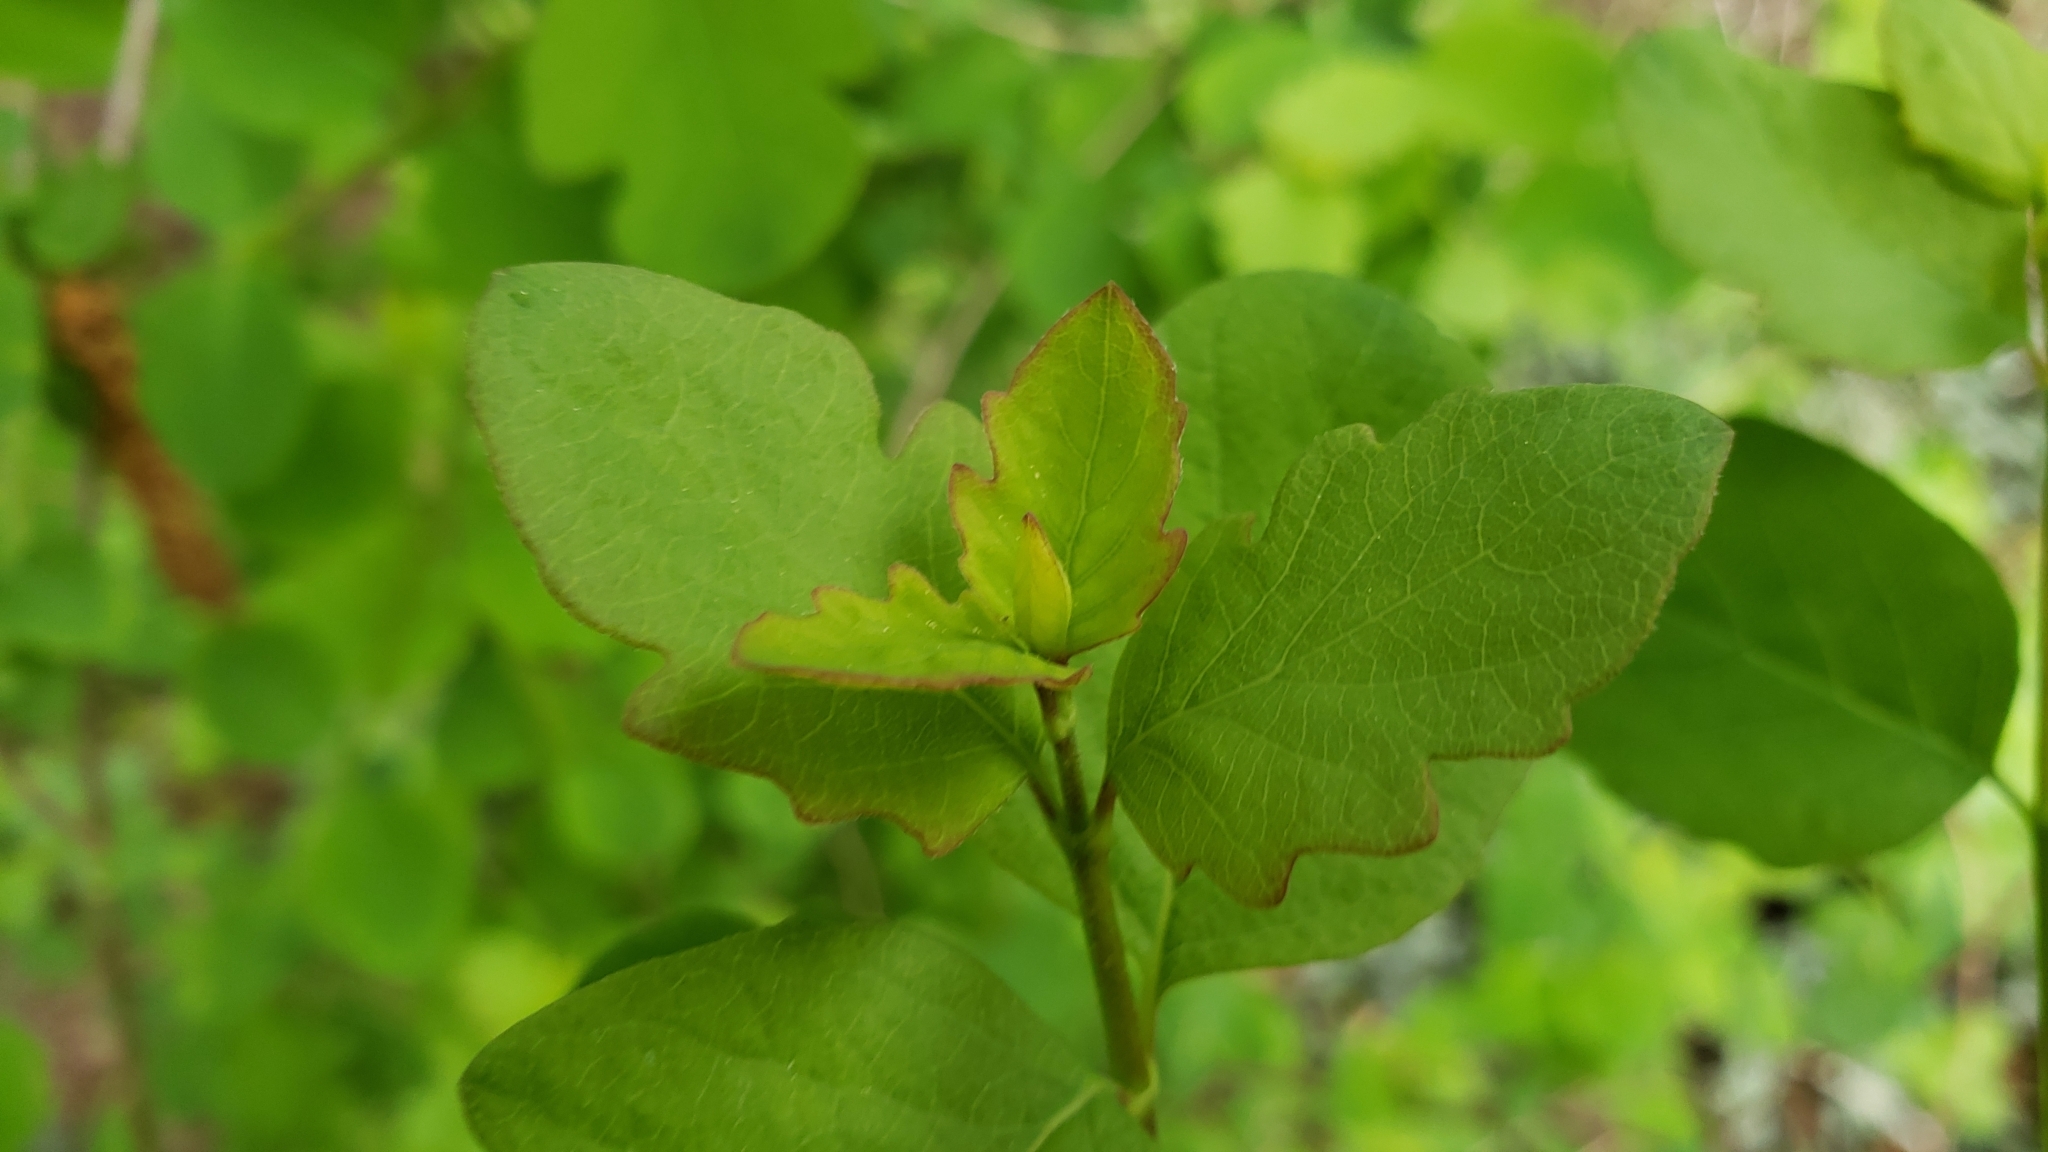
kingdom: Plantae
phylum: Tracheophyta
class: Magnoliopsida
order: Dipsacales
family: Caprifoliaceae
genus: Symphoricarpos
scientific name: Symphoricarpos albus
